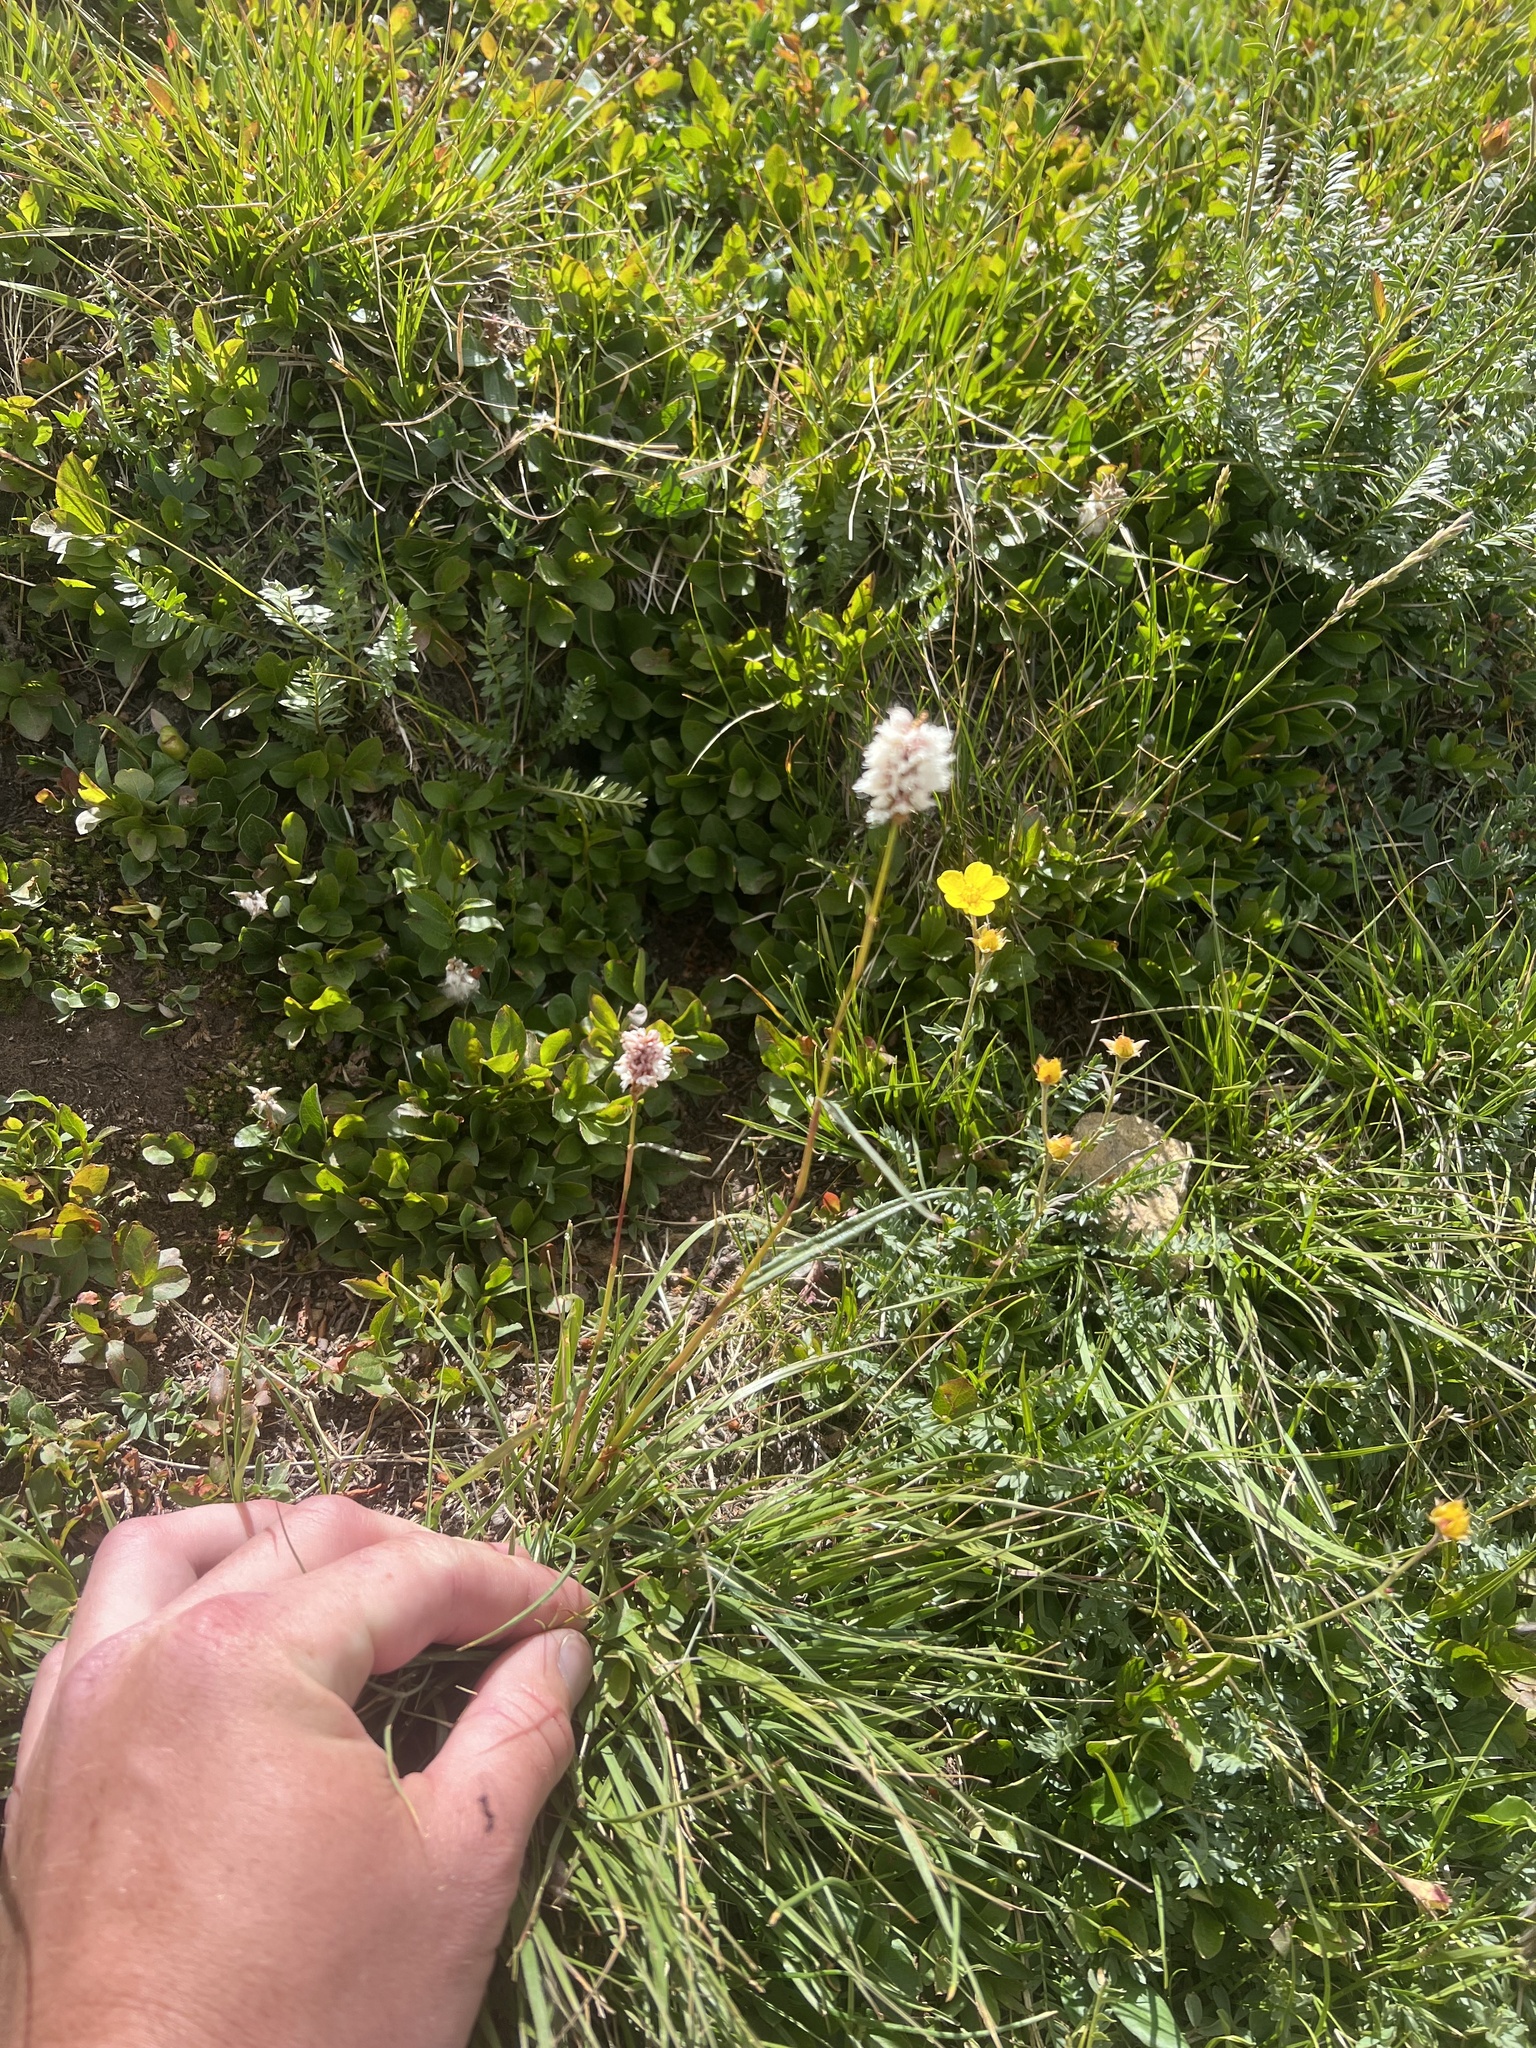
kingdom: Plantae
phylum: Tracheophyta
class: Magnoliopsida
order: Caryophyllales
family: Polygonaceae
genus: Bistorta
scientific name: Bistorta bistortoides
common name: American bistort
